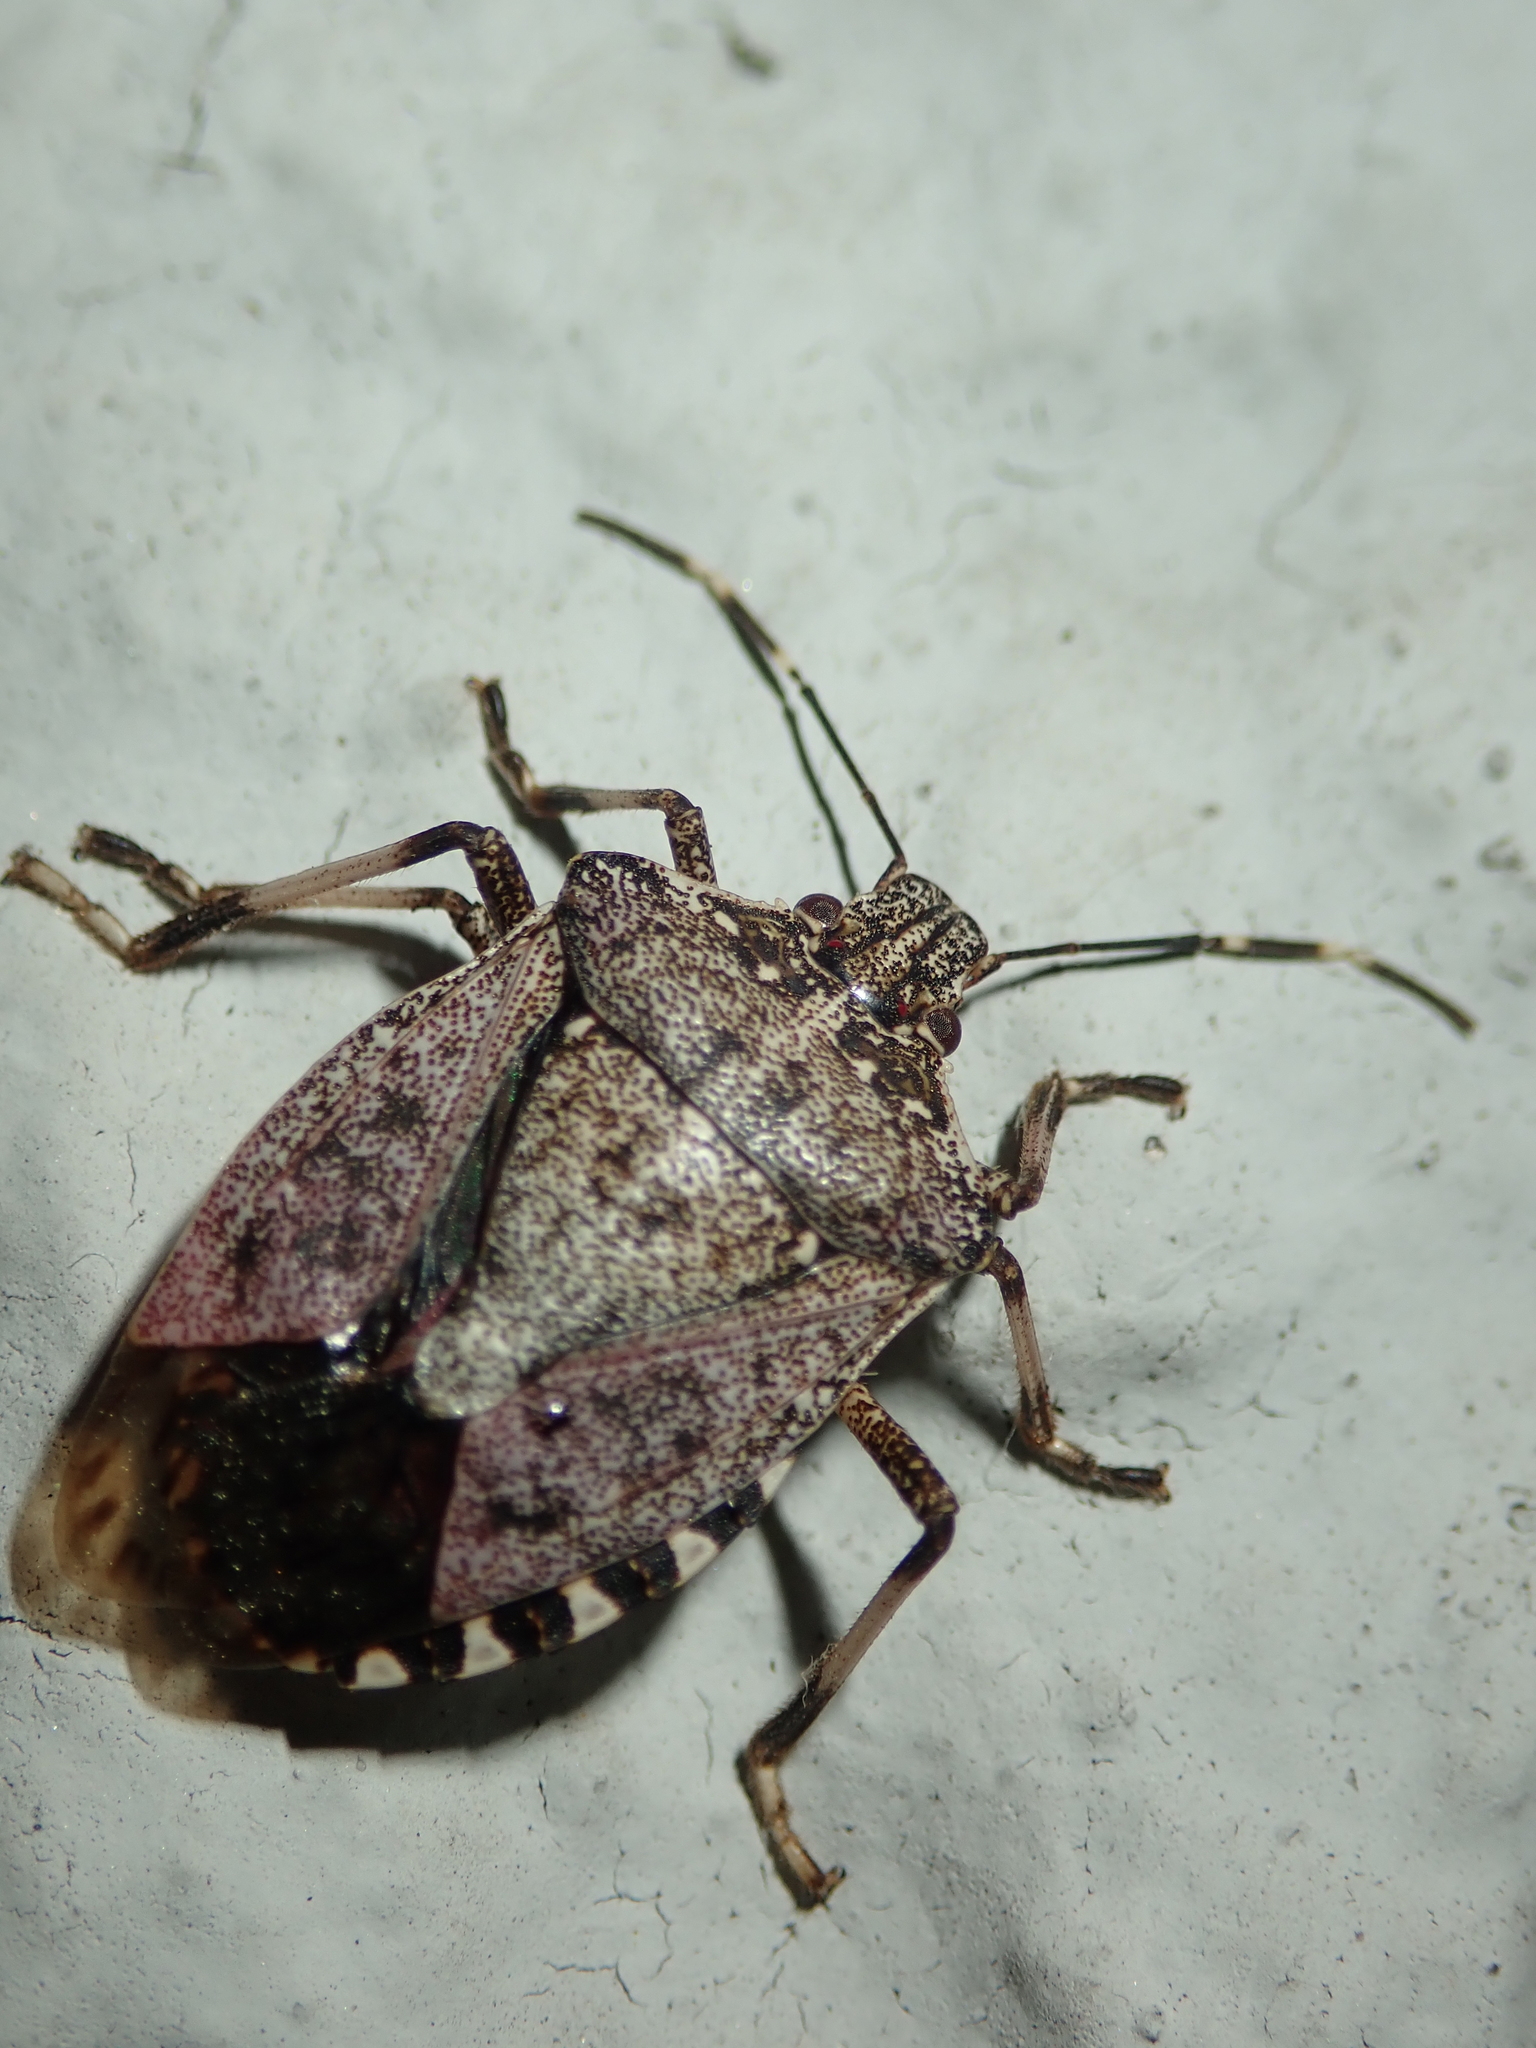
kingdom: Animalia
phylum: Arthropoda
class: Insecta
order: Hemiptera
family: Pentatomidae
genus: Halyomorpha
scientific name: Halyomorpha halys
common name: Brown marmorated stink bug
